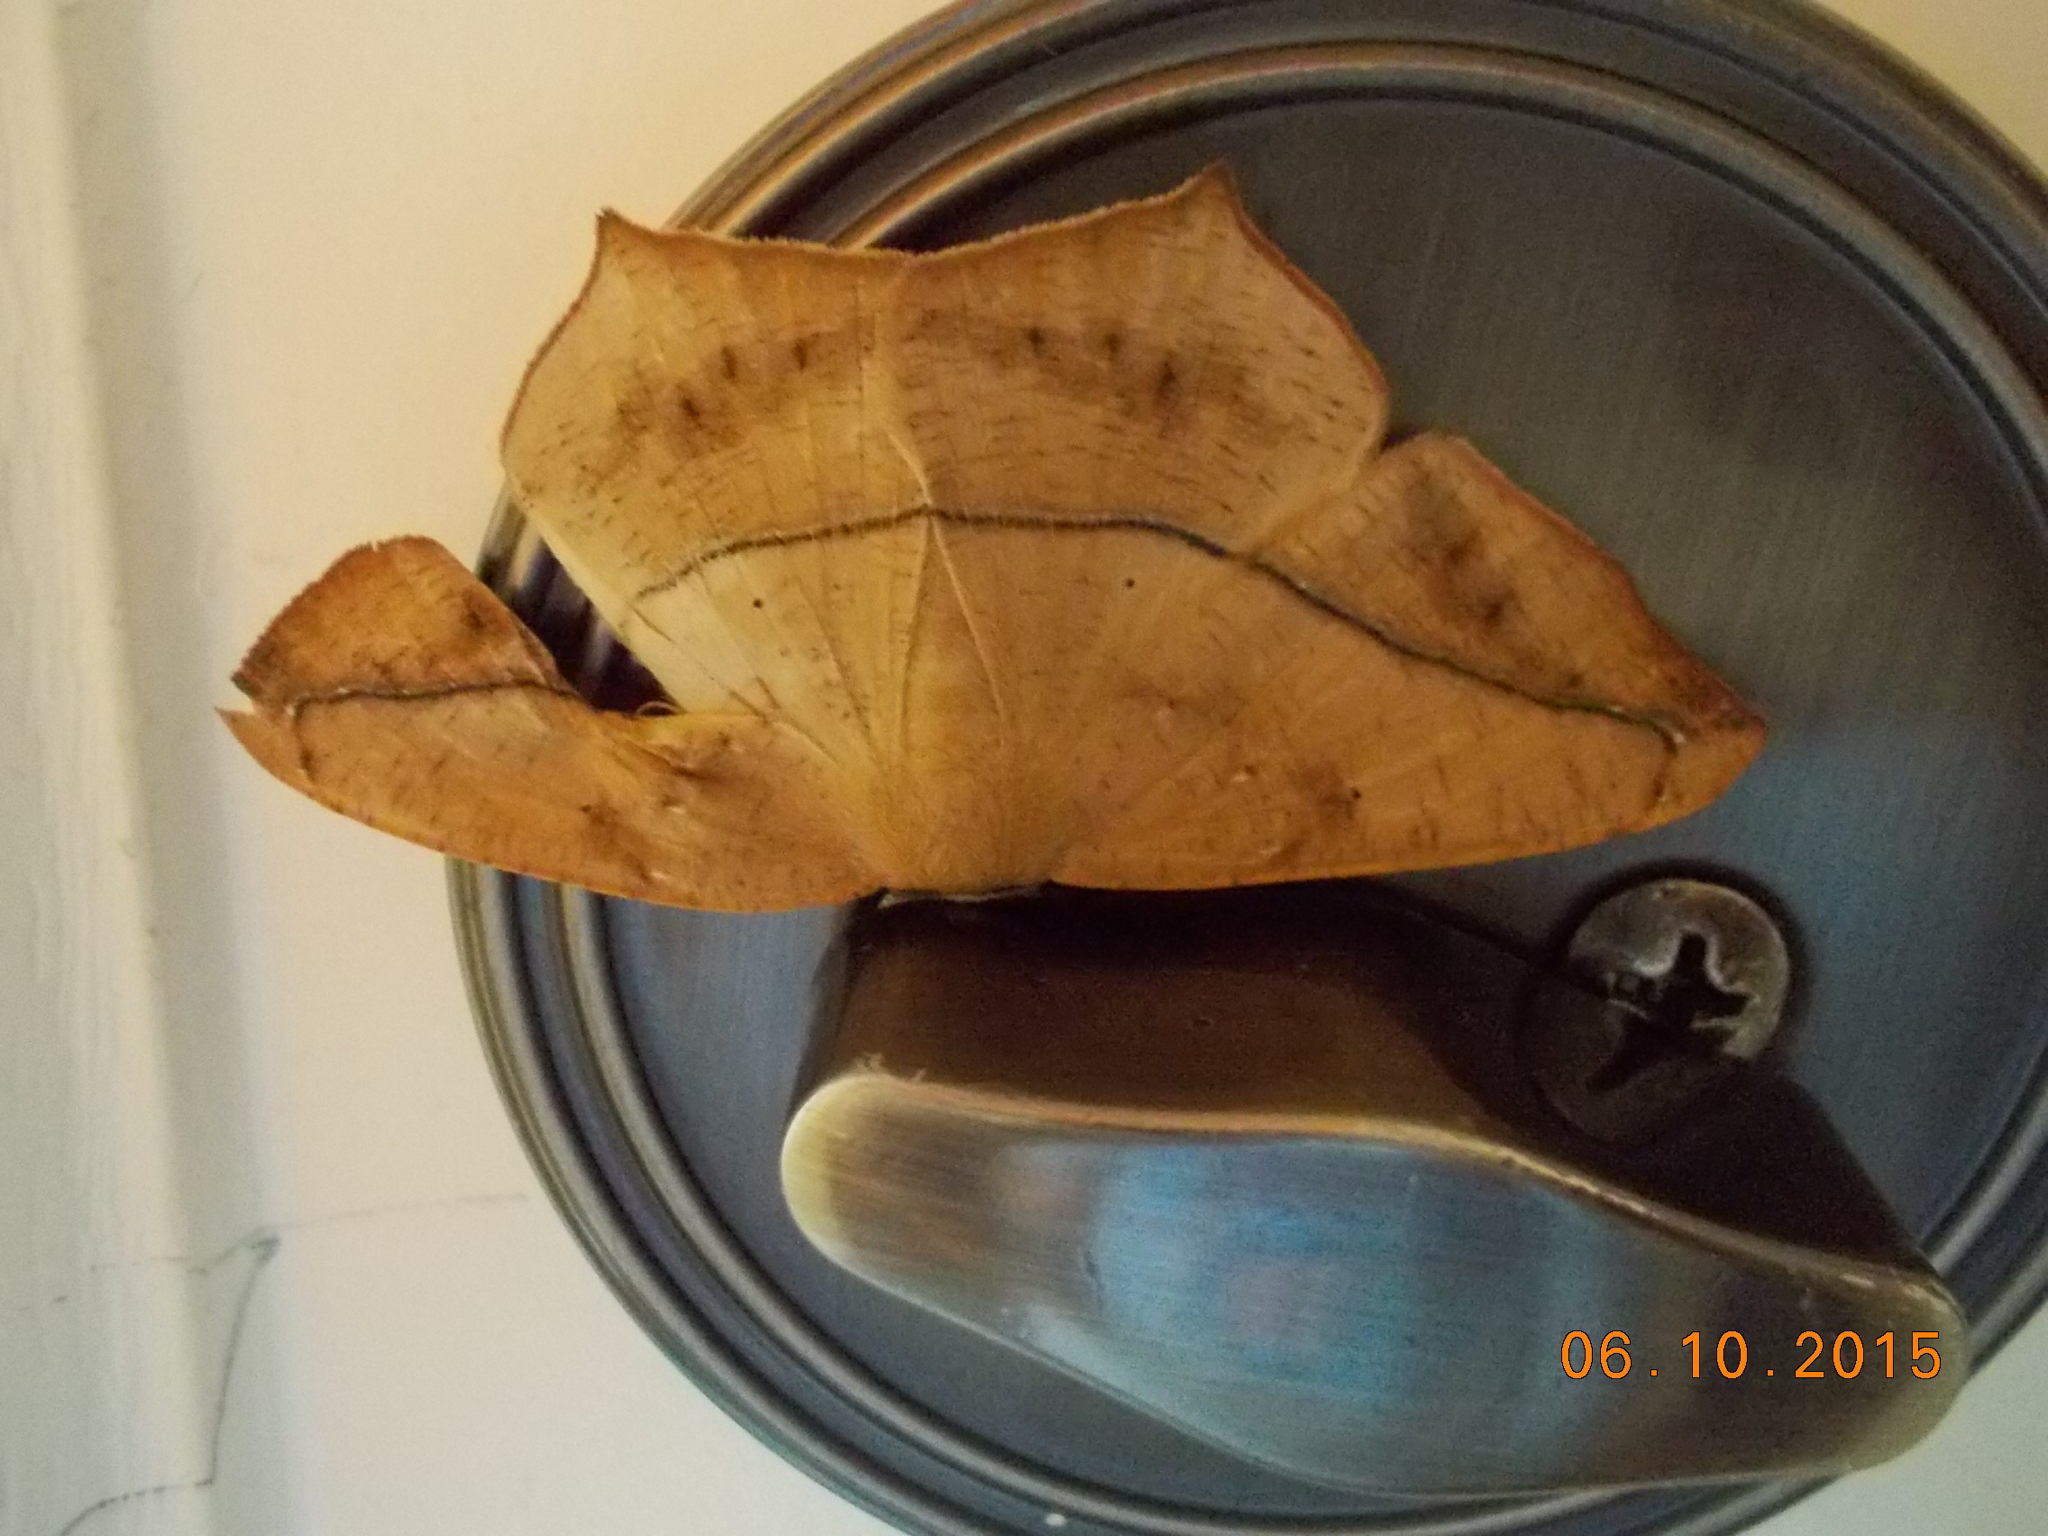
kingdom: Animalia
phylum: Arthropoda
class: Insecta
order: Lepidoptera
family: Geometridae
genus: Prochoerodes
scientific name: Prochoerodes lineola
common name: Large maple spanworm
